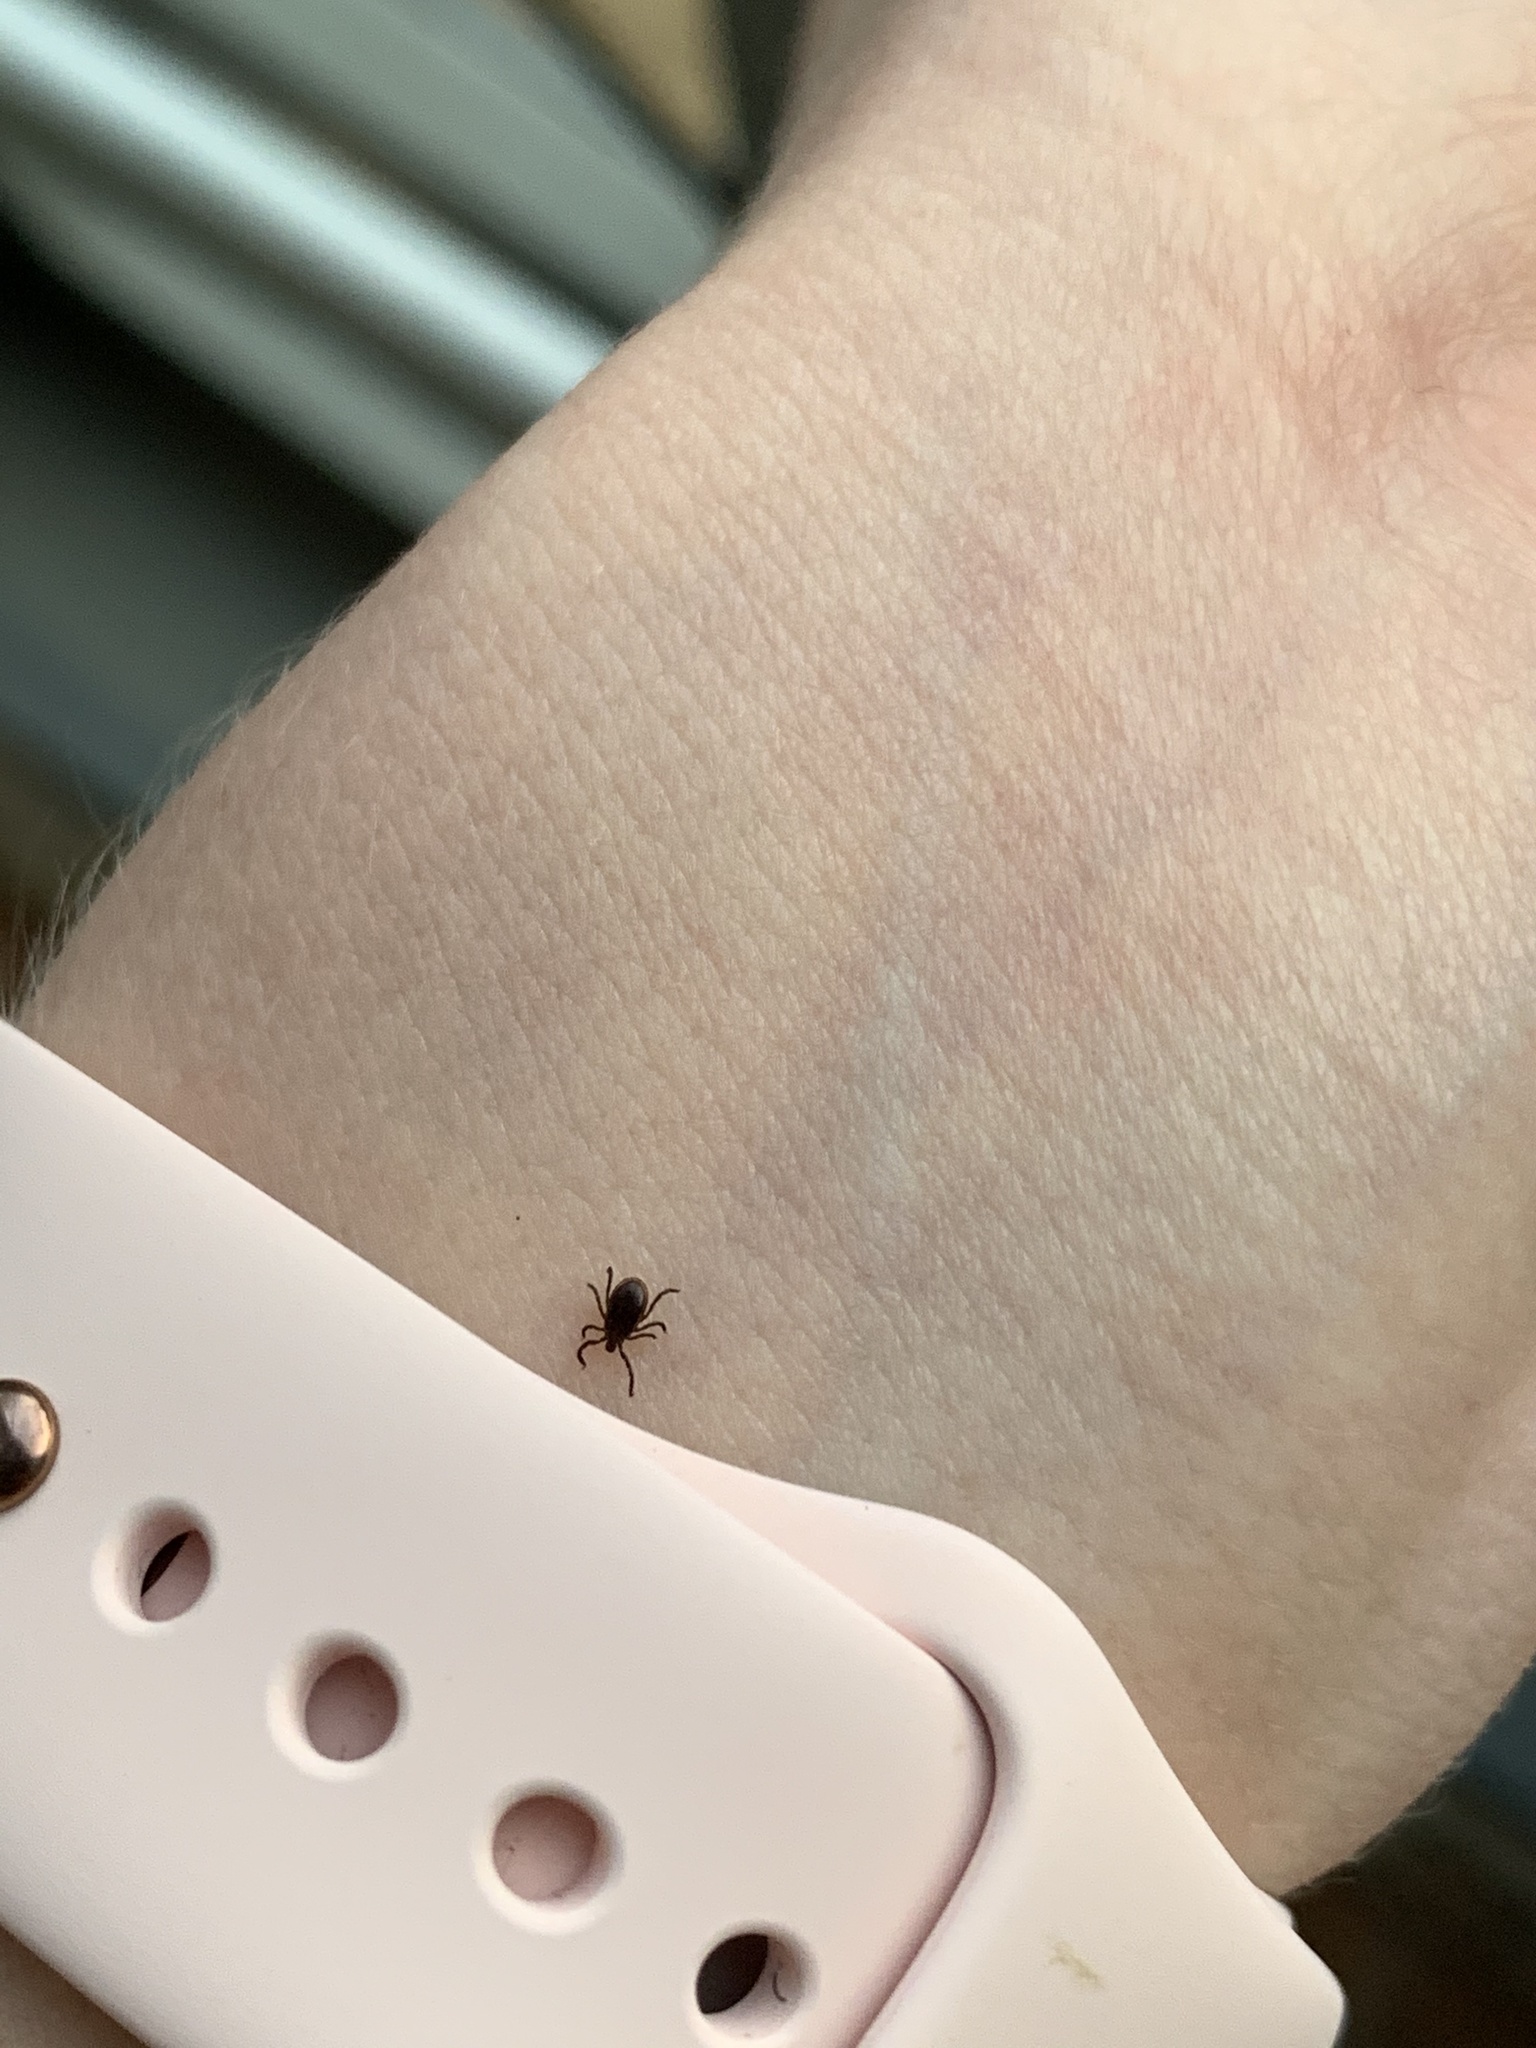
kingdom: Animalia
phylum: Arthropoda
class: Arachnida
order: Ixodida
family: Ixodidae
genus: Ixodes
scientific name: Ixodes scapularis
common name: Black legged tick
